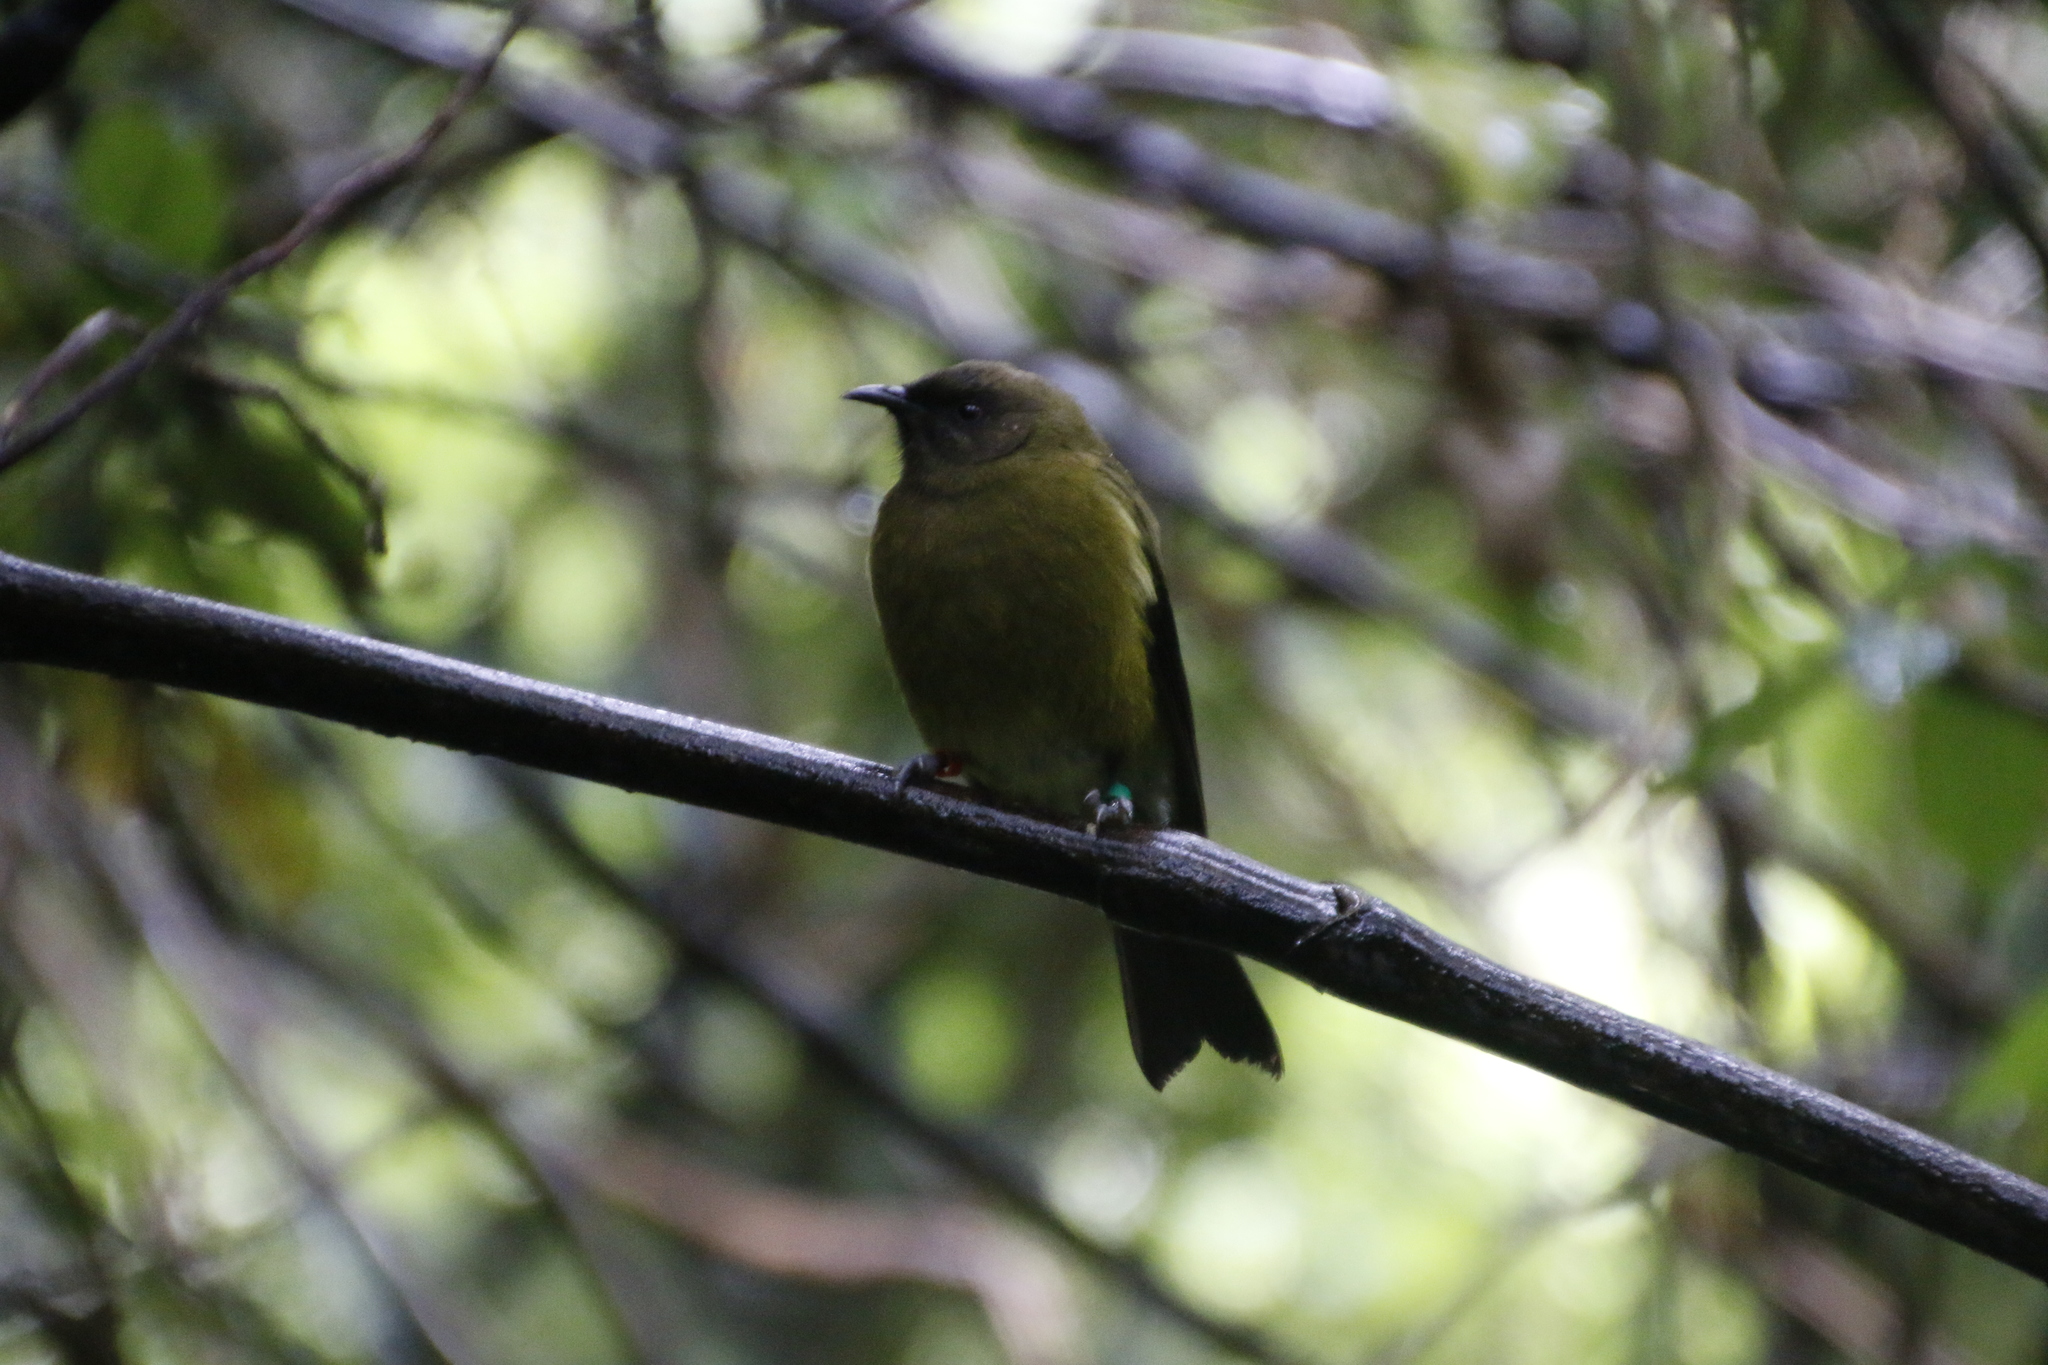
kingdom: Animalia
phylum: Chordata
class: Aves
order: Passeriformes
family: Meliphagidae
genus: Anthornis
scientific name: Anthornis melanura
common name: New zealand bellbird
